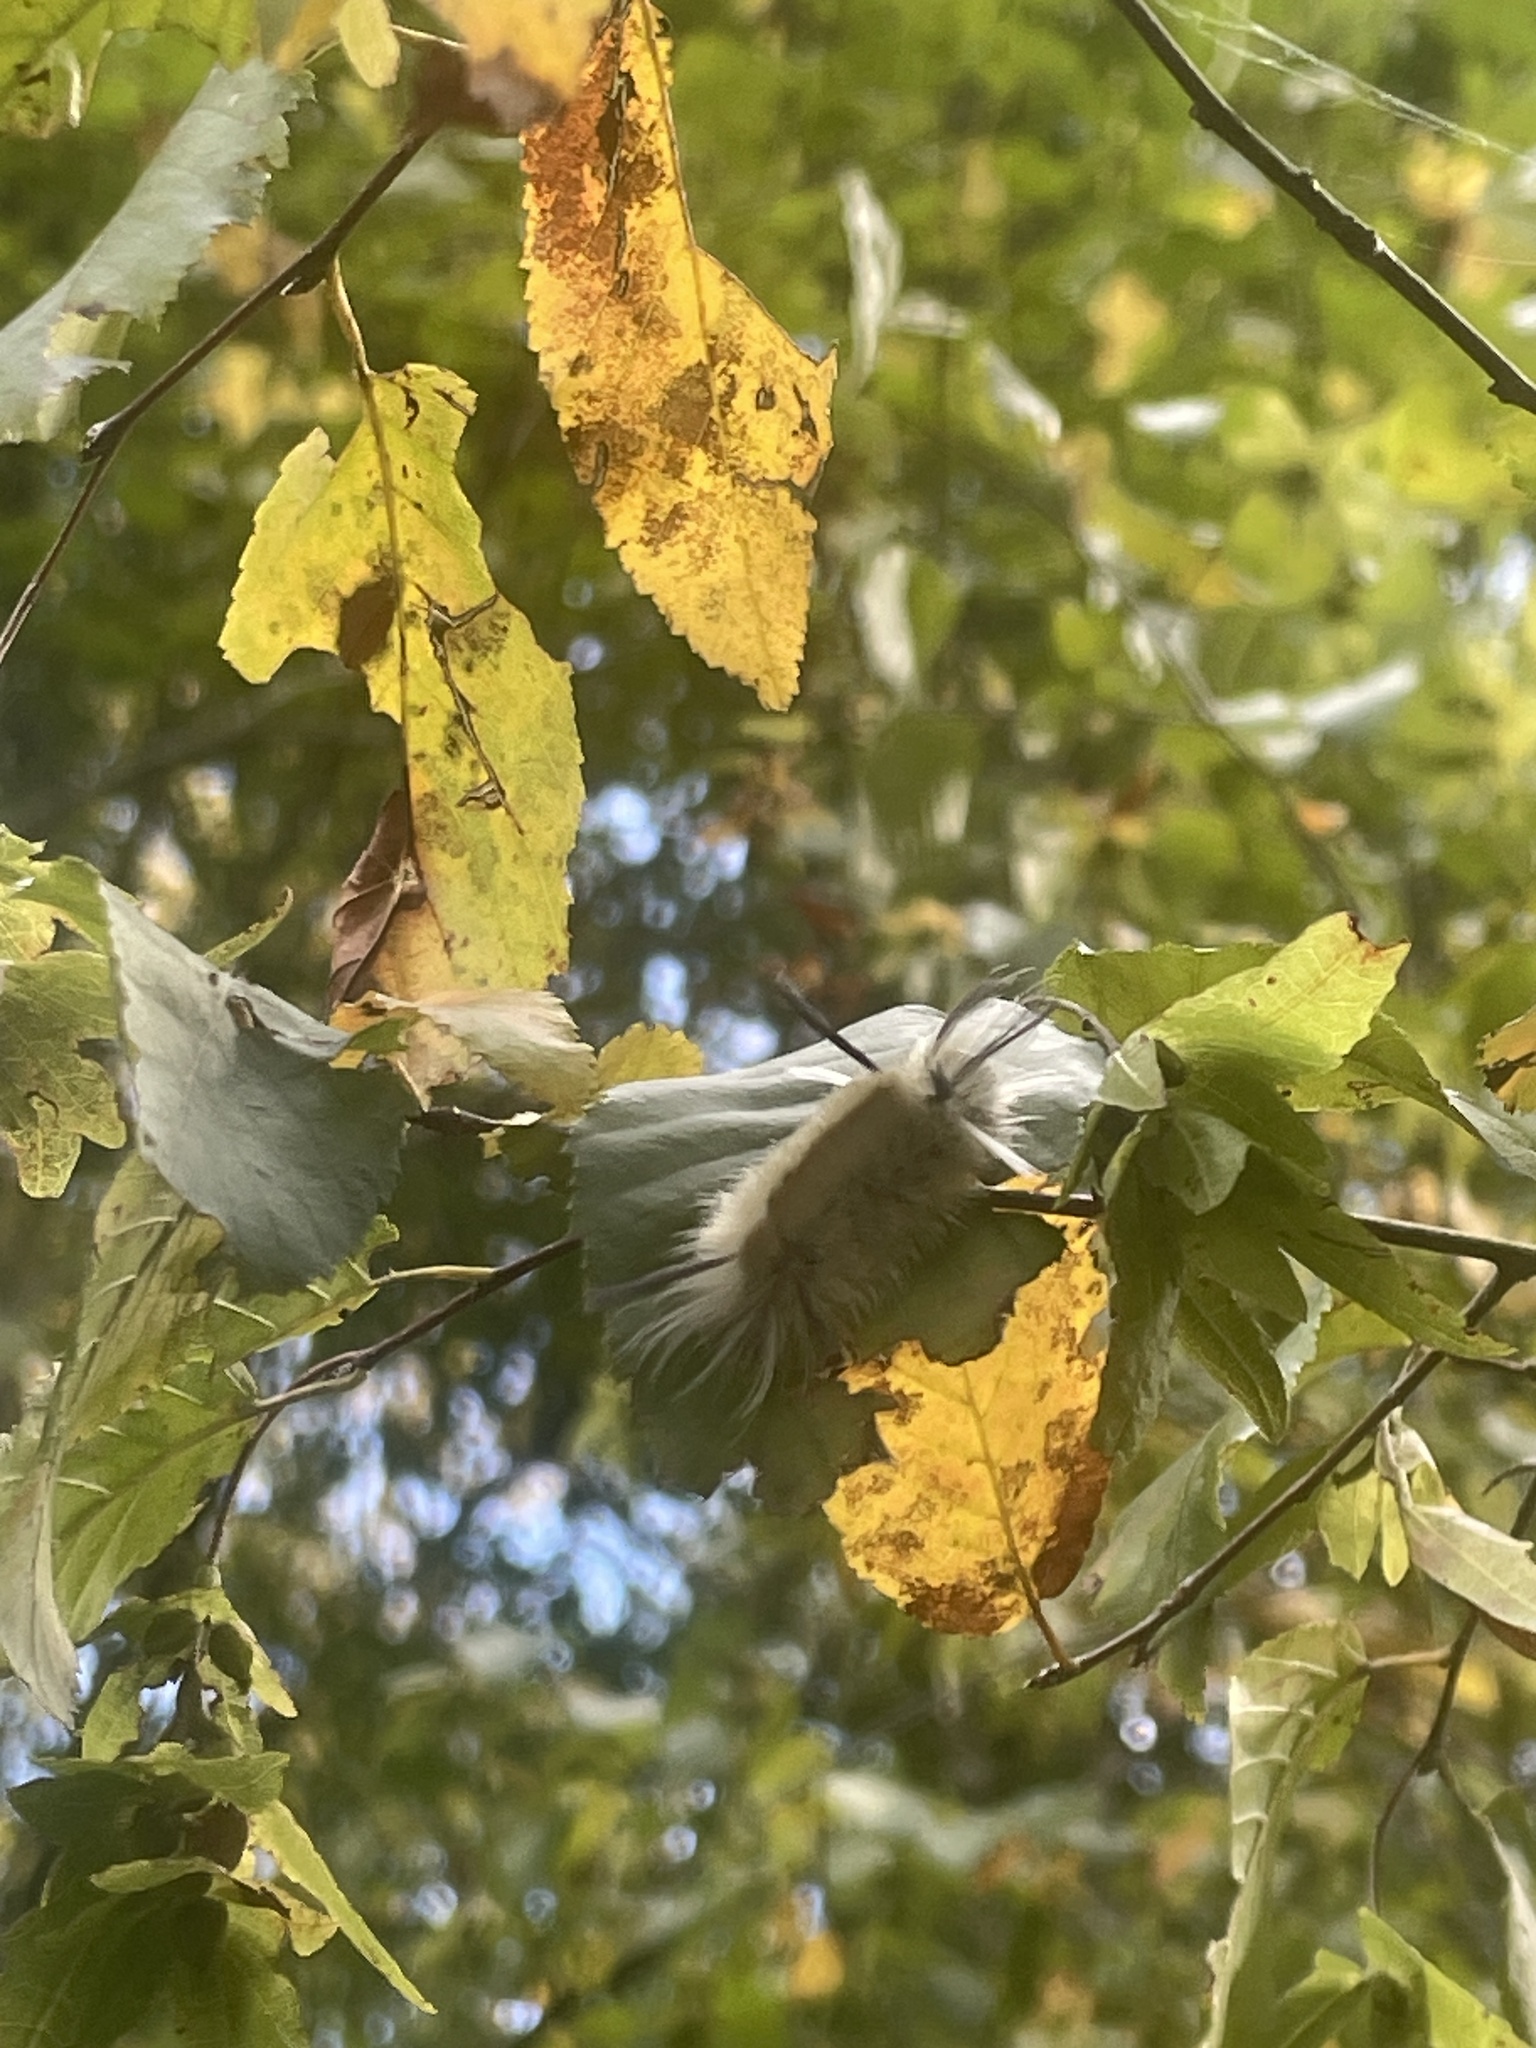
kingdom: Animalia
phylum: Arthropoda
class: Insecta
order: Lepidoptera
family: Erebidae
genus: Halysidota
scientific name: Halysidota tessellaris
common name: Banded tussock moth
